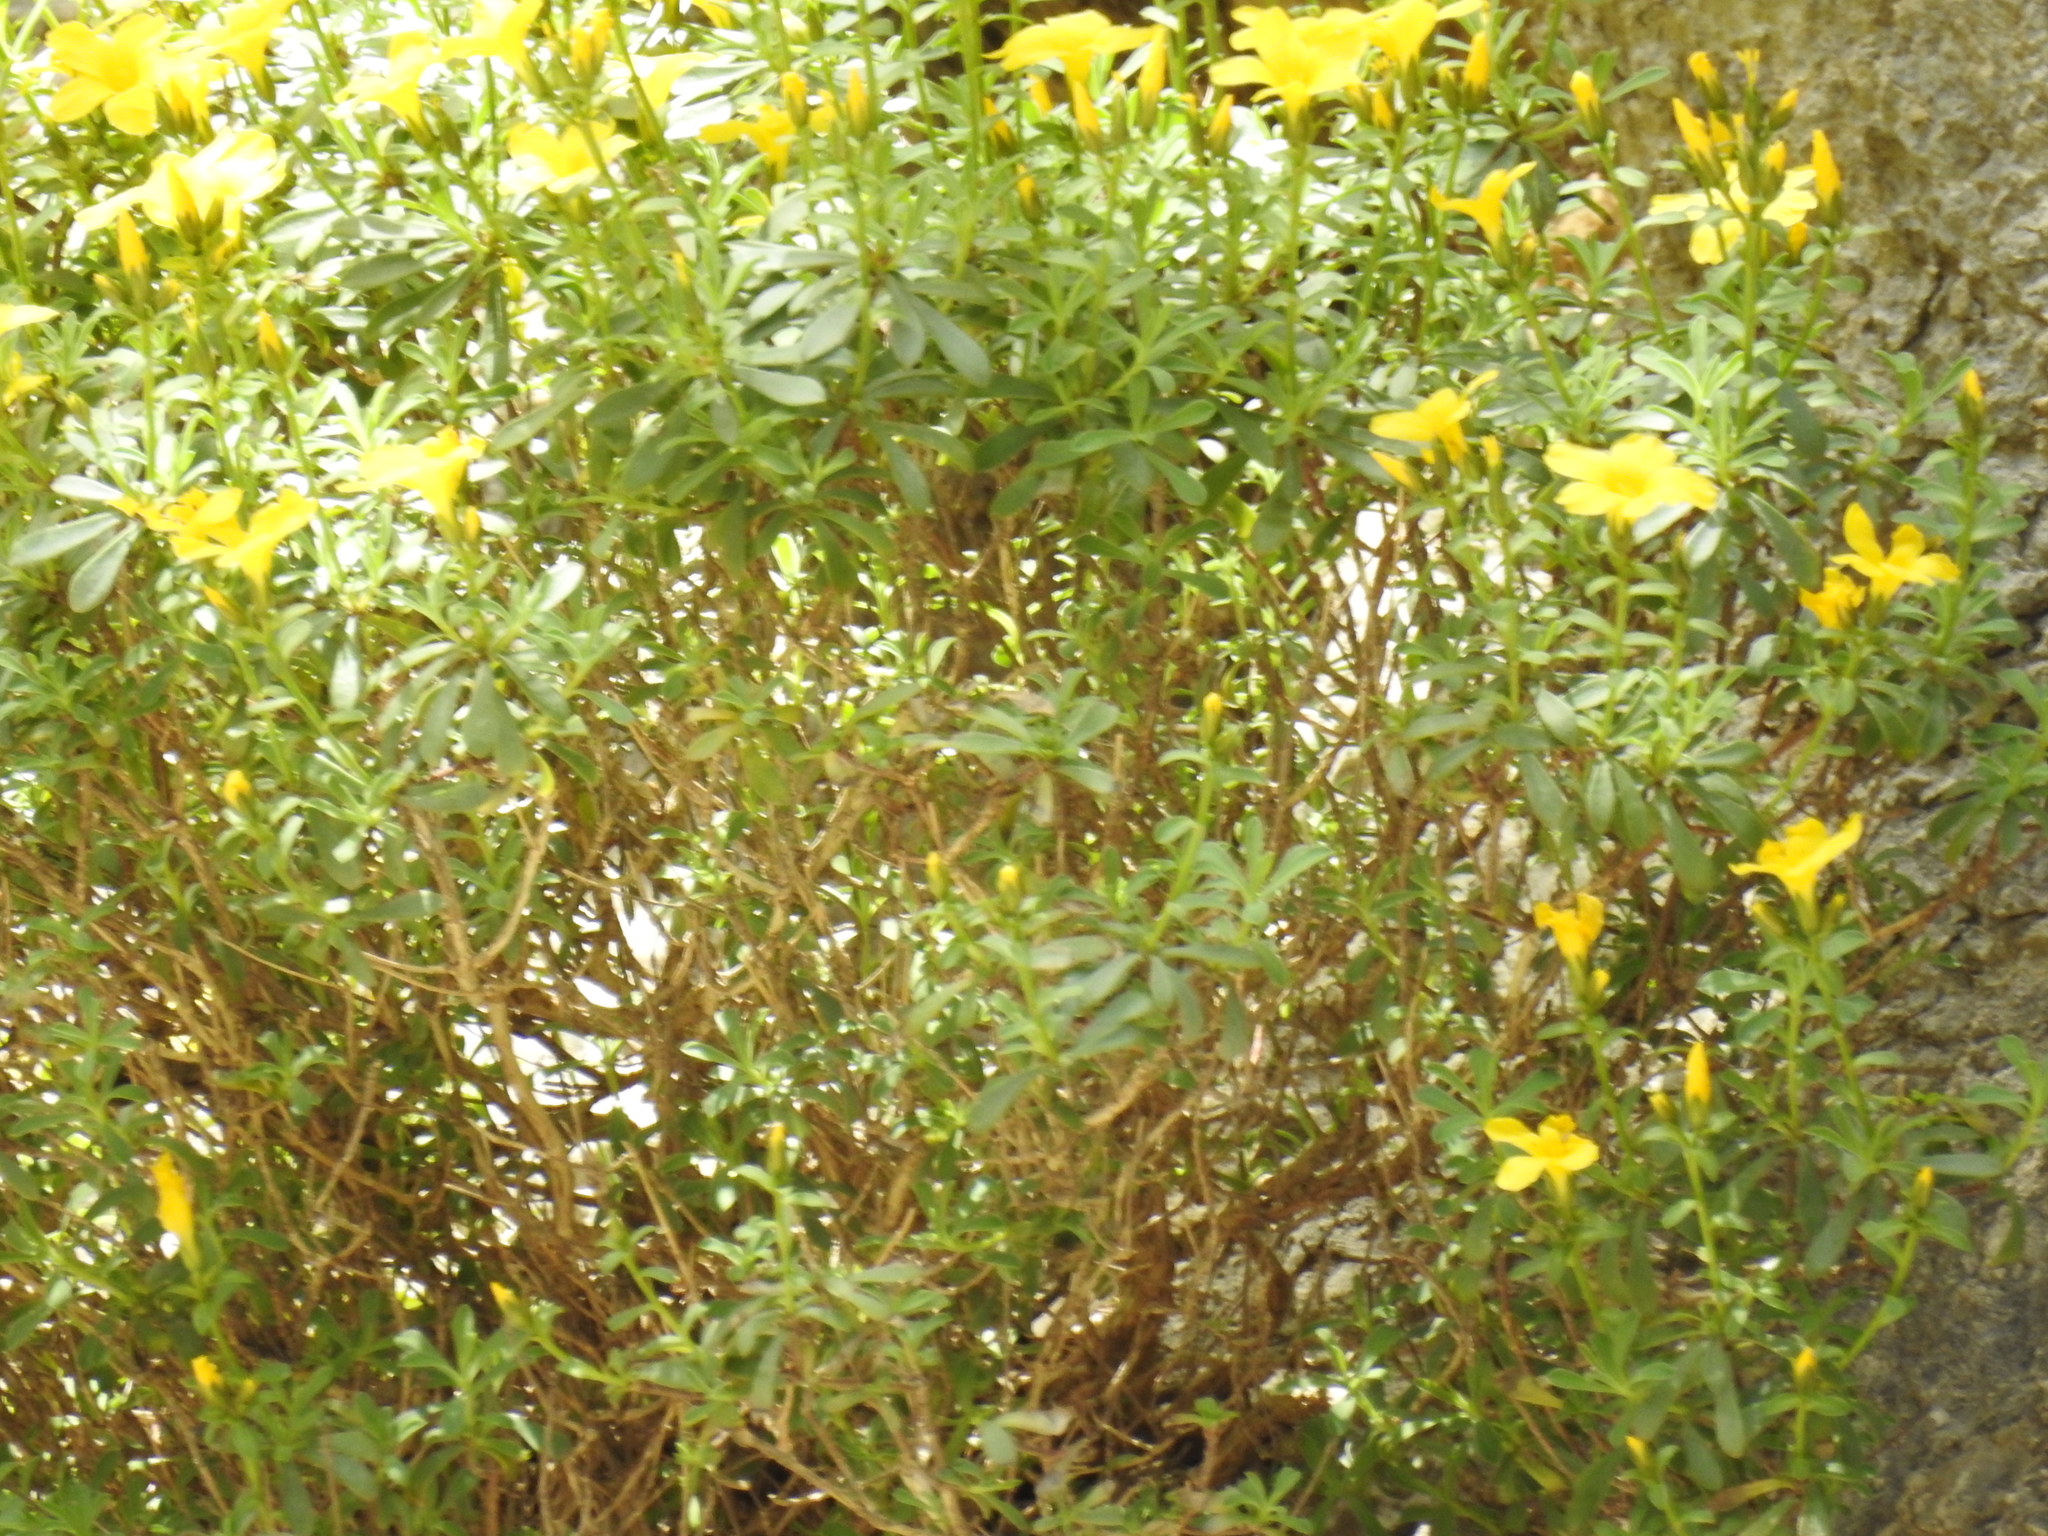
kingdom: Plantae
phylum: Tracheophyta
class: Magnoliopsida
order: Malpighiales
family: Linaceae
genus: Linum
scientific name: Linum arboreum
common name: Tree flax
